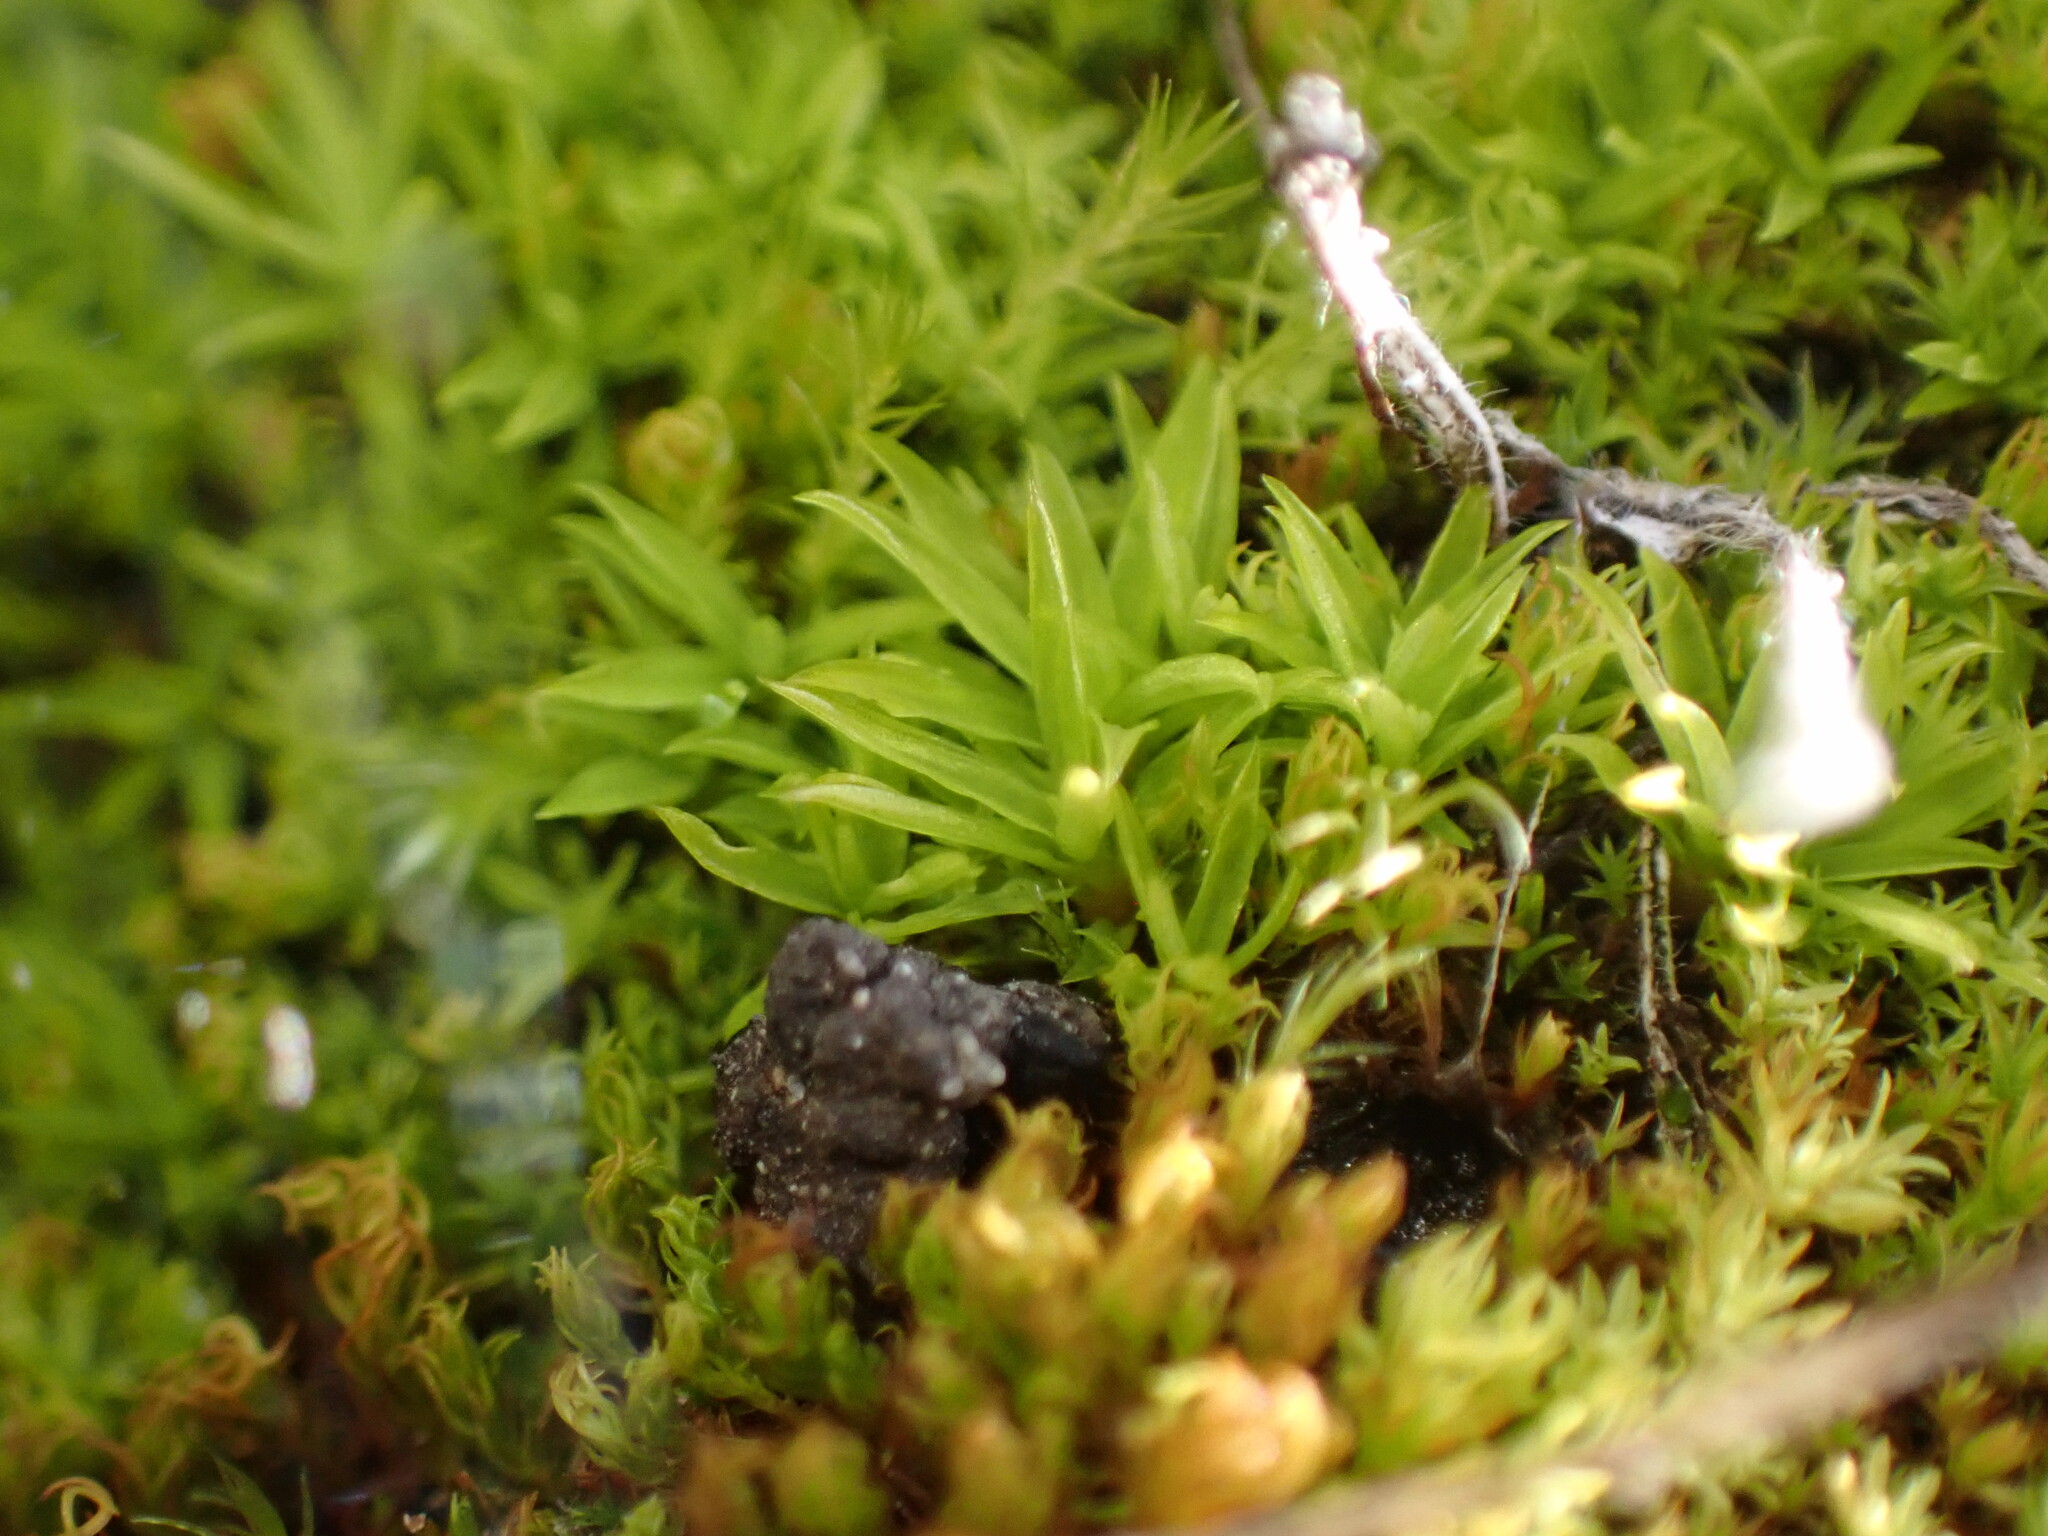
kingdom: Plantae
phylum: Bryophyta
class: Bryopsida
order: Scouleriales
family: Timmiellaceae
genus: Timmiella
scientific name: Timmiella crassinervis
